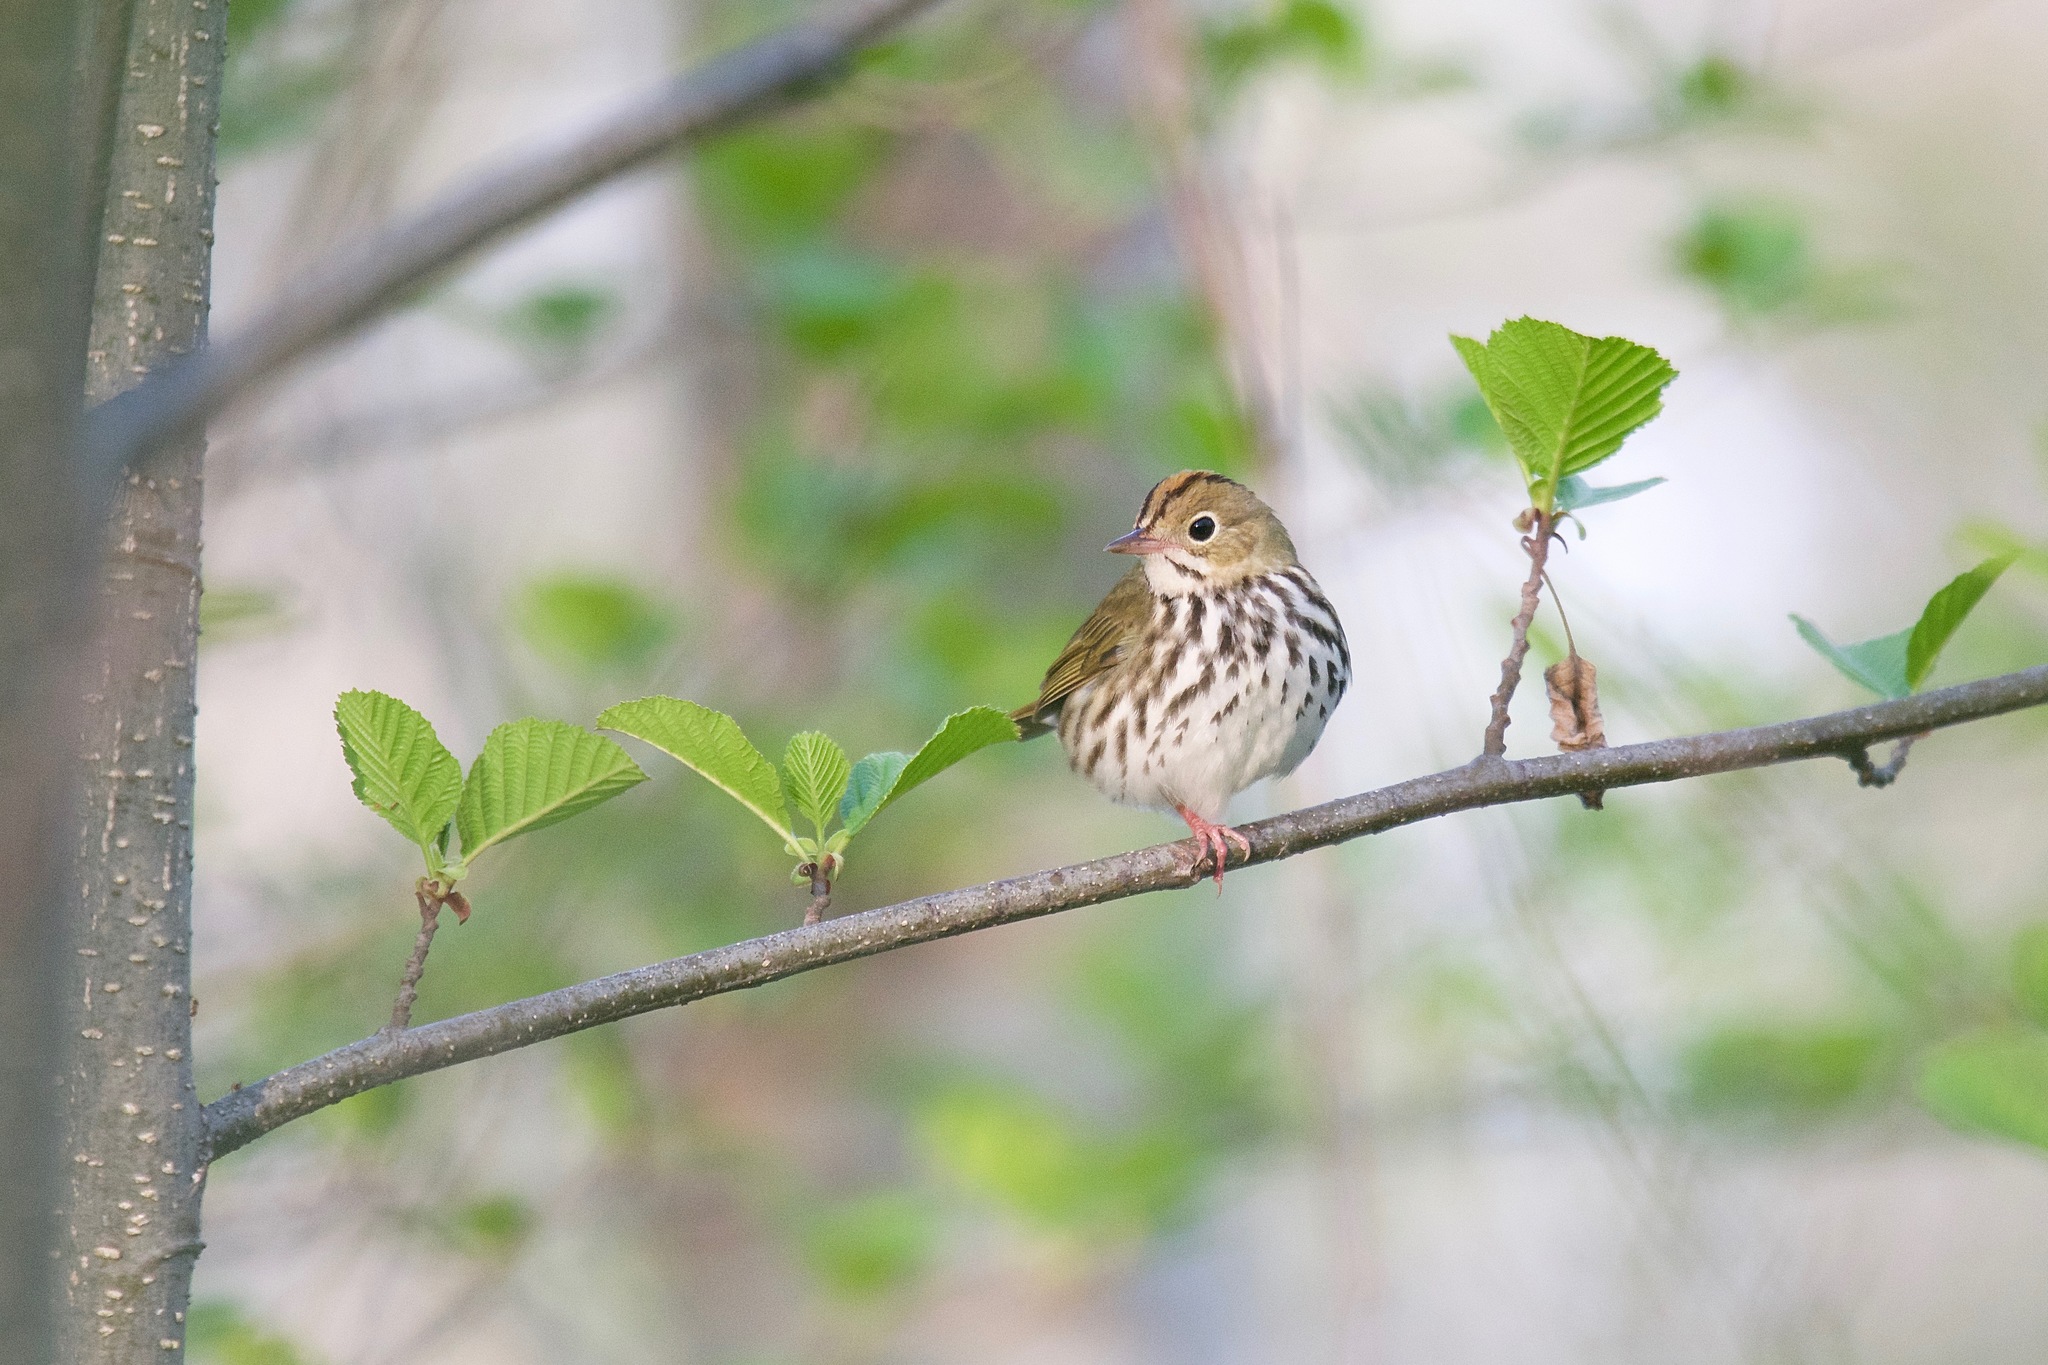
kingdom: Animalia
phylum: Chordata
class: Aves
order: Passeriformes
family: Parulidae
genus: Seiurus
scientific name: Seiurus aurocapilla
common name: Ovenbird
